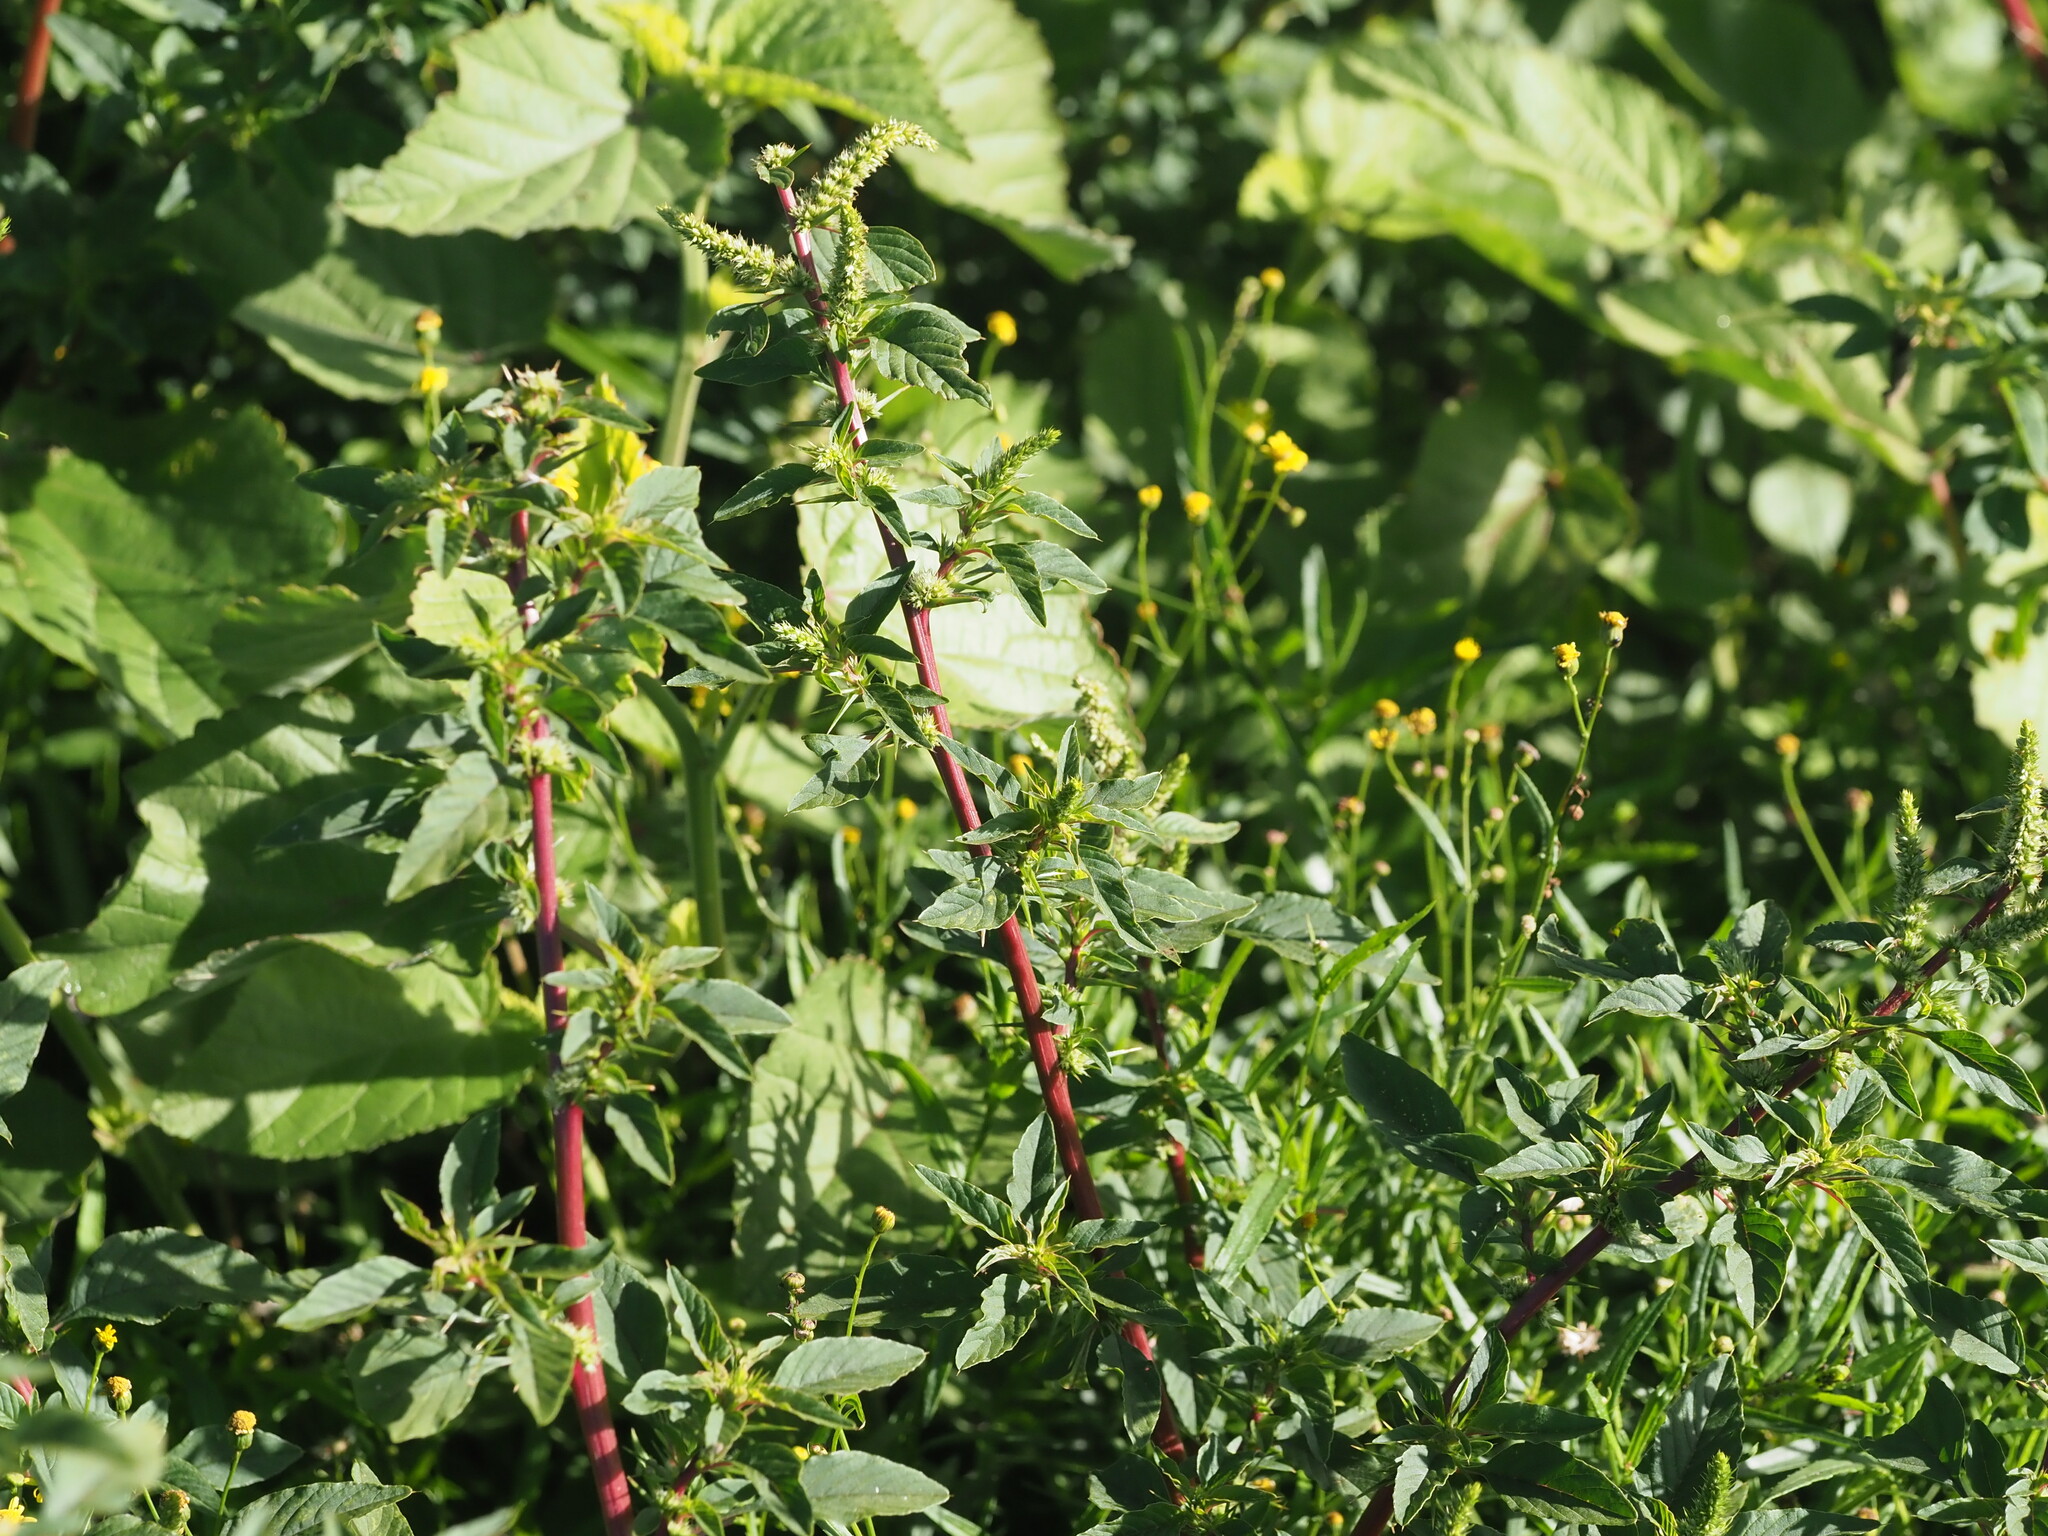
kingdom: Plantae
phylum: Tracheophyta
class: Magnoliopsida
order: Caryophyllales
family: Amaranthaceae
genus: Amaranthus
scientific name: Amaranthus spinosus
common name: Spiny amaranth
